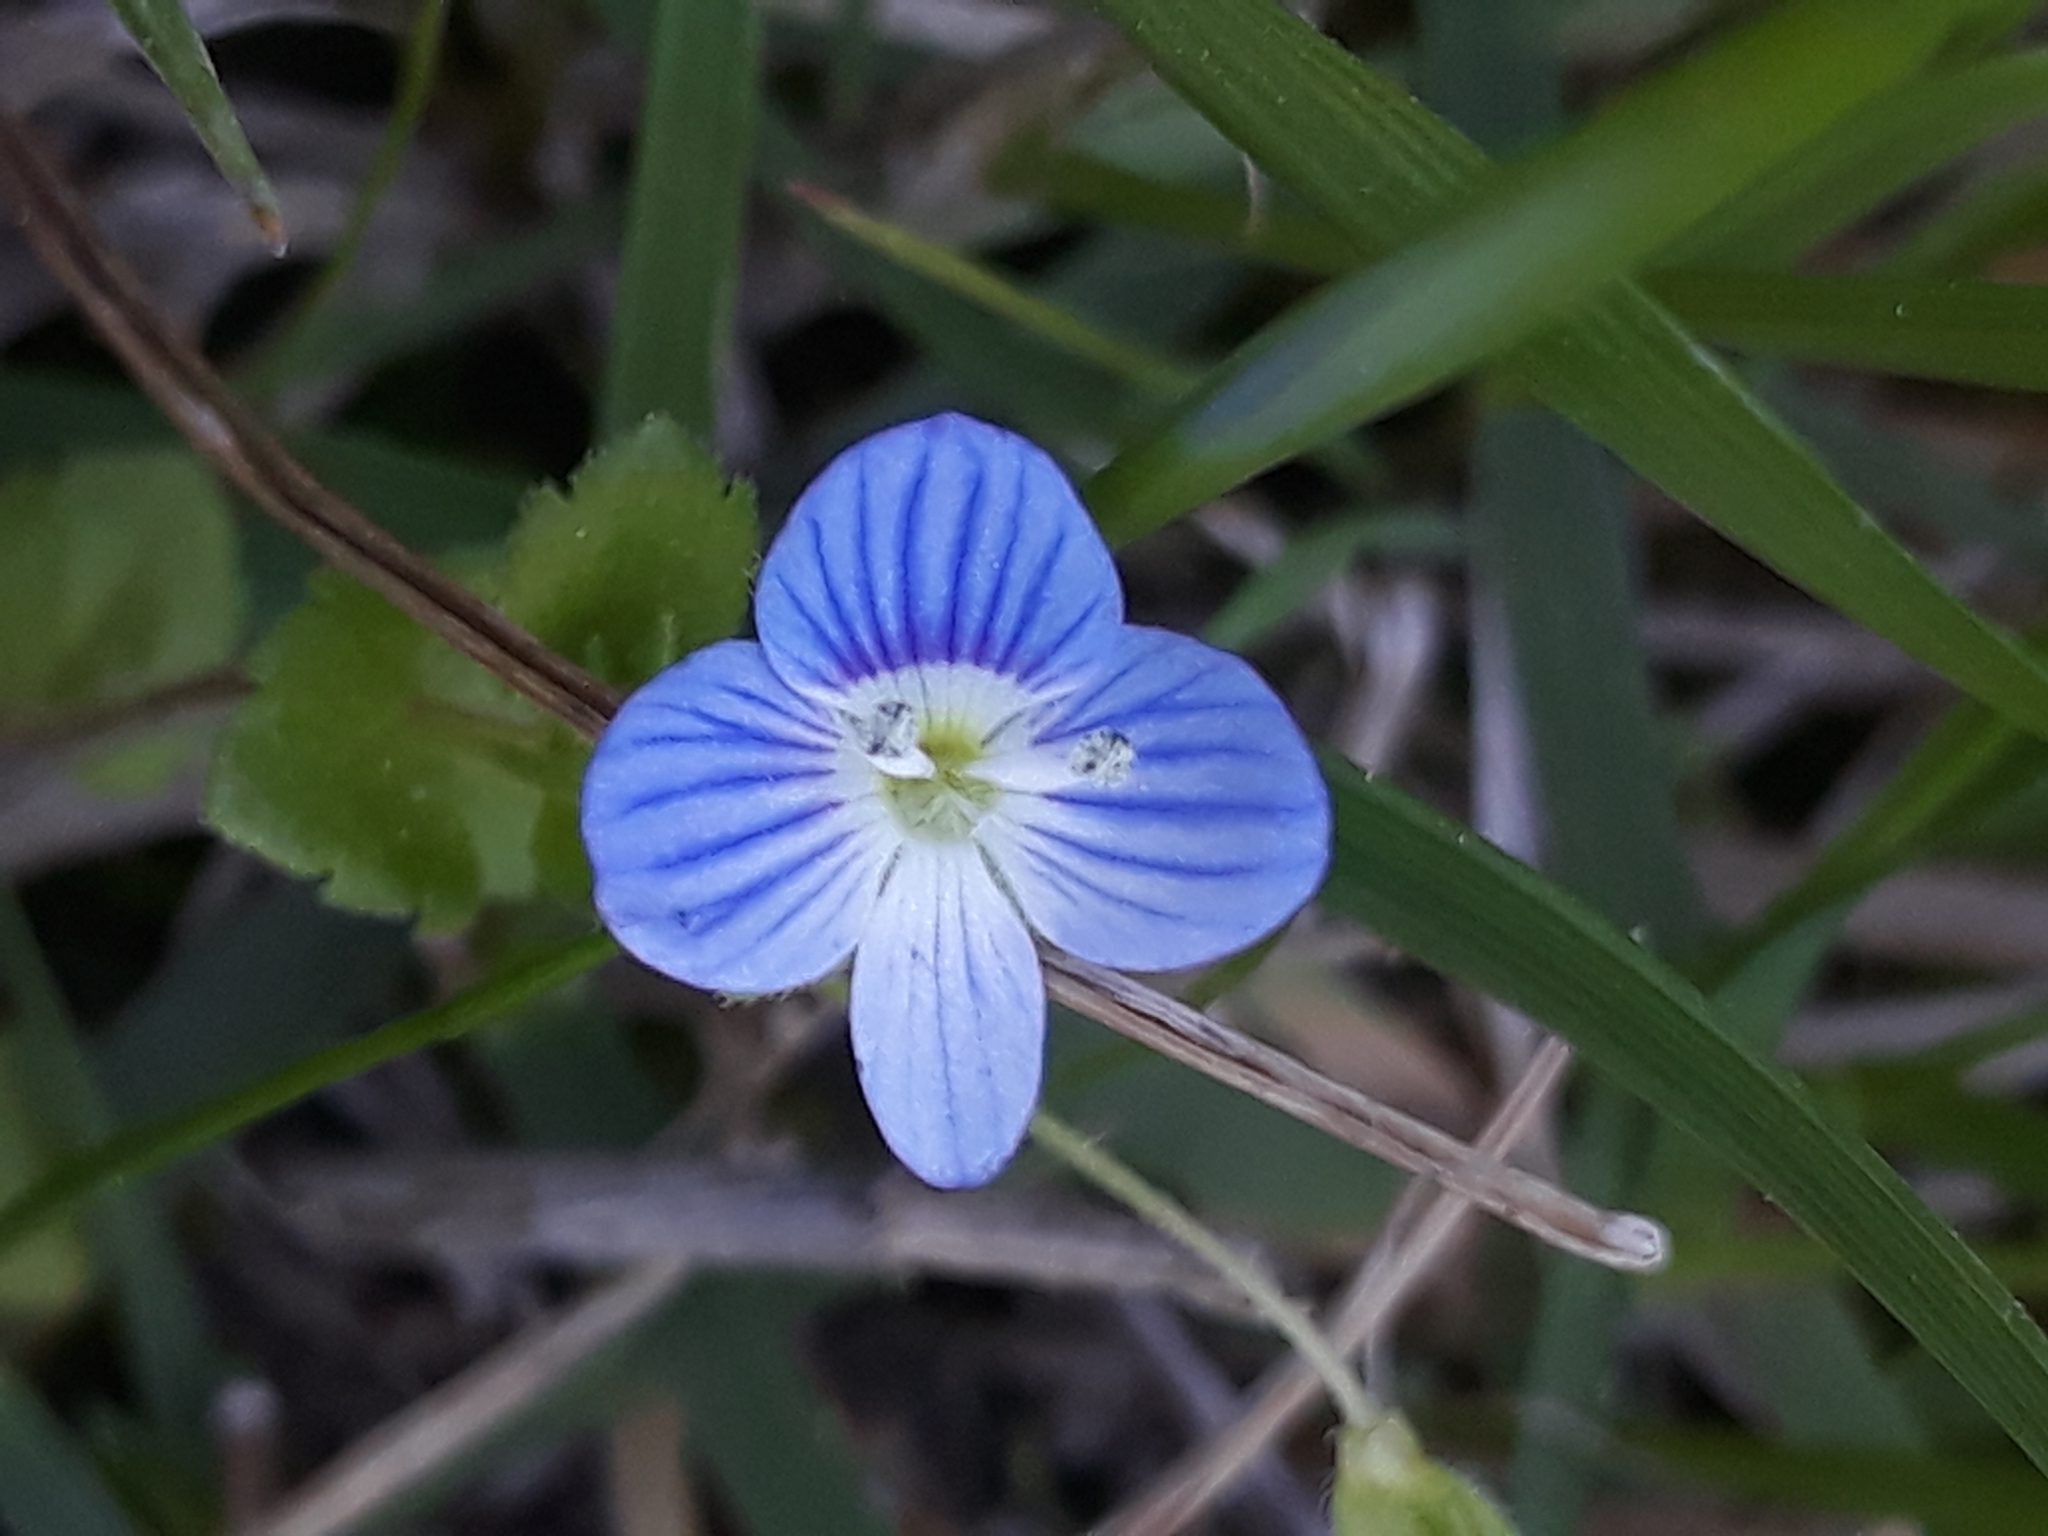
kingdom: Plantae
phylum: Tracheophyta
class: Magnoliopsida
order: Lamiales
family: Plantaginaceae
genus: Veronica
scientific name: Veronica persica
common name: Common field-speedwell
